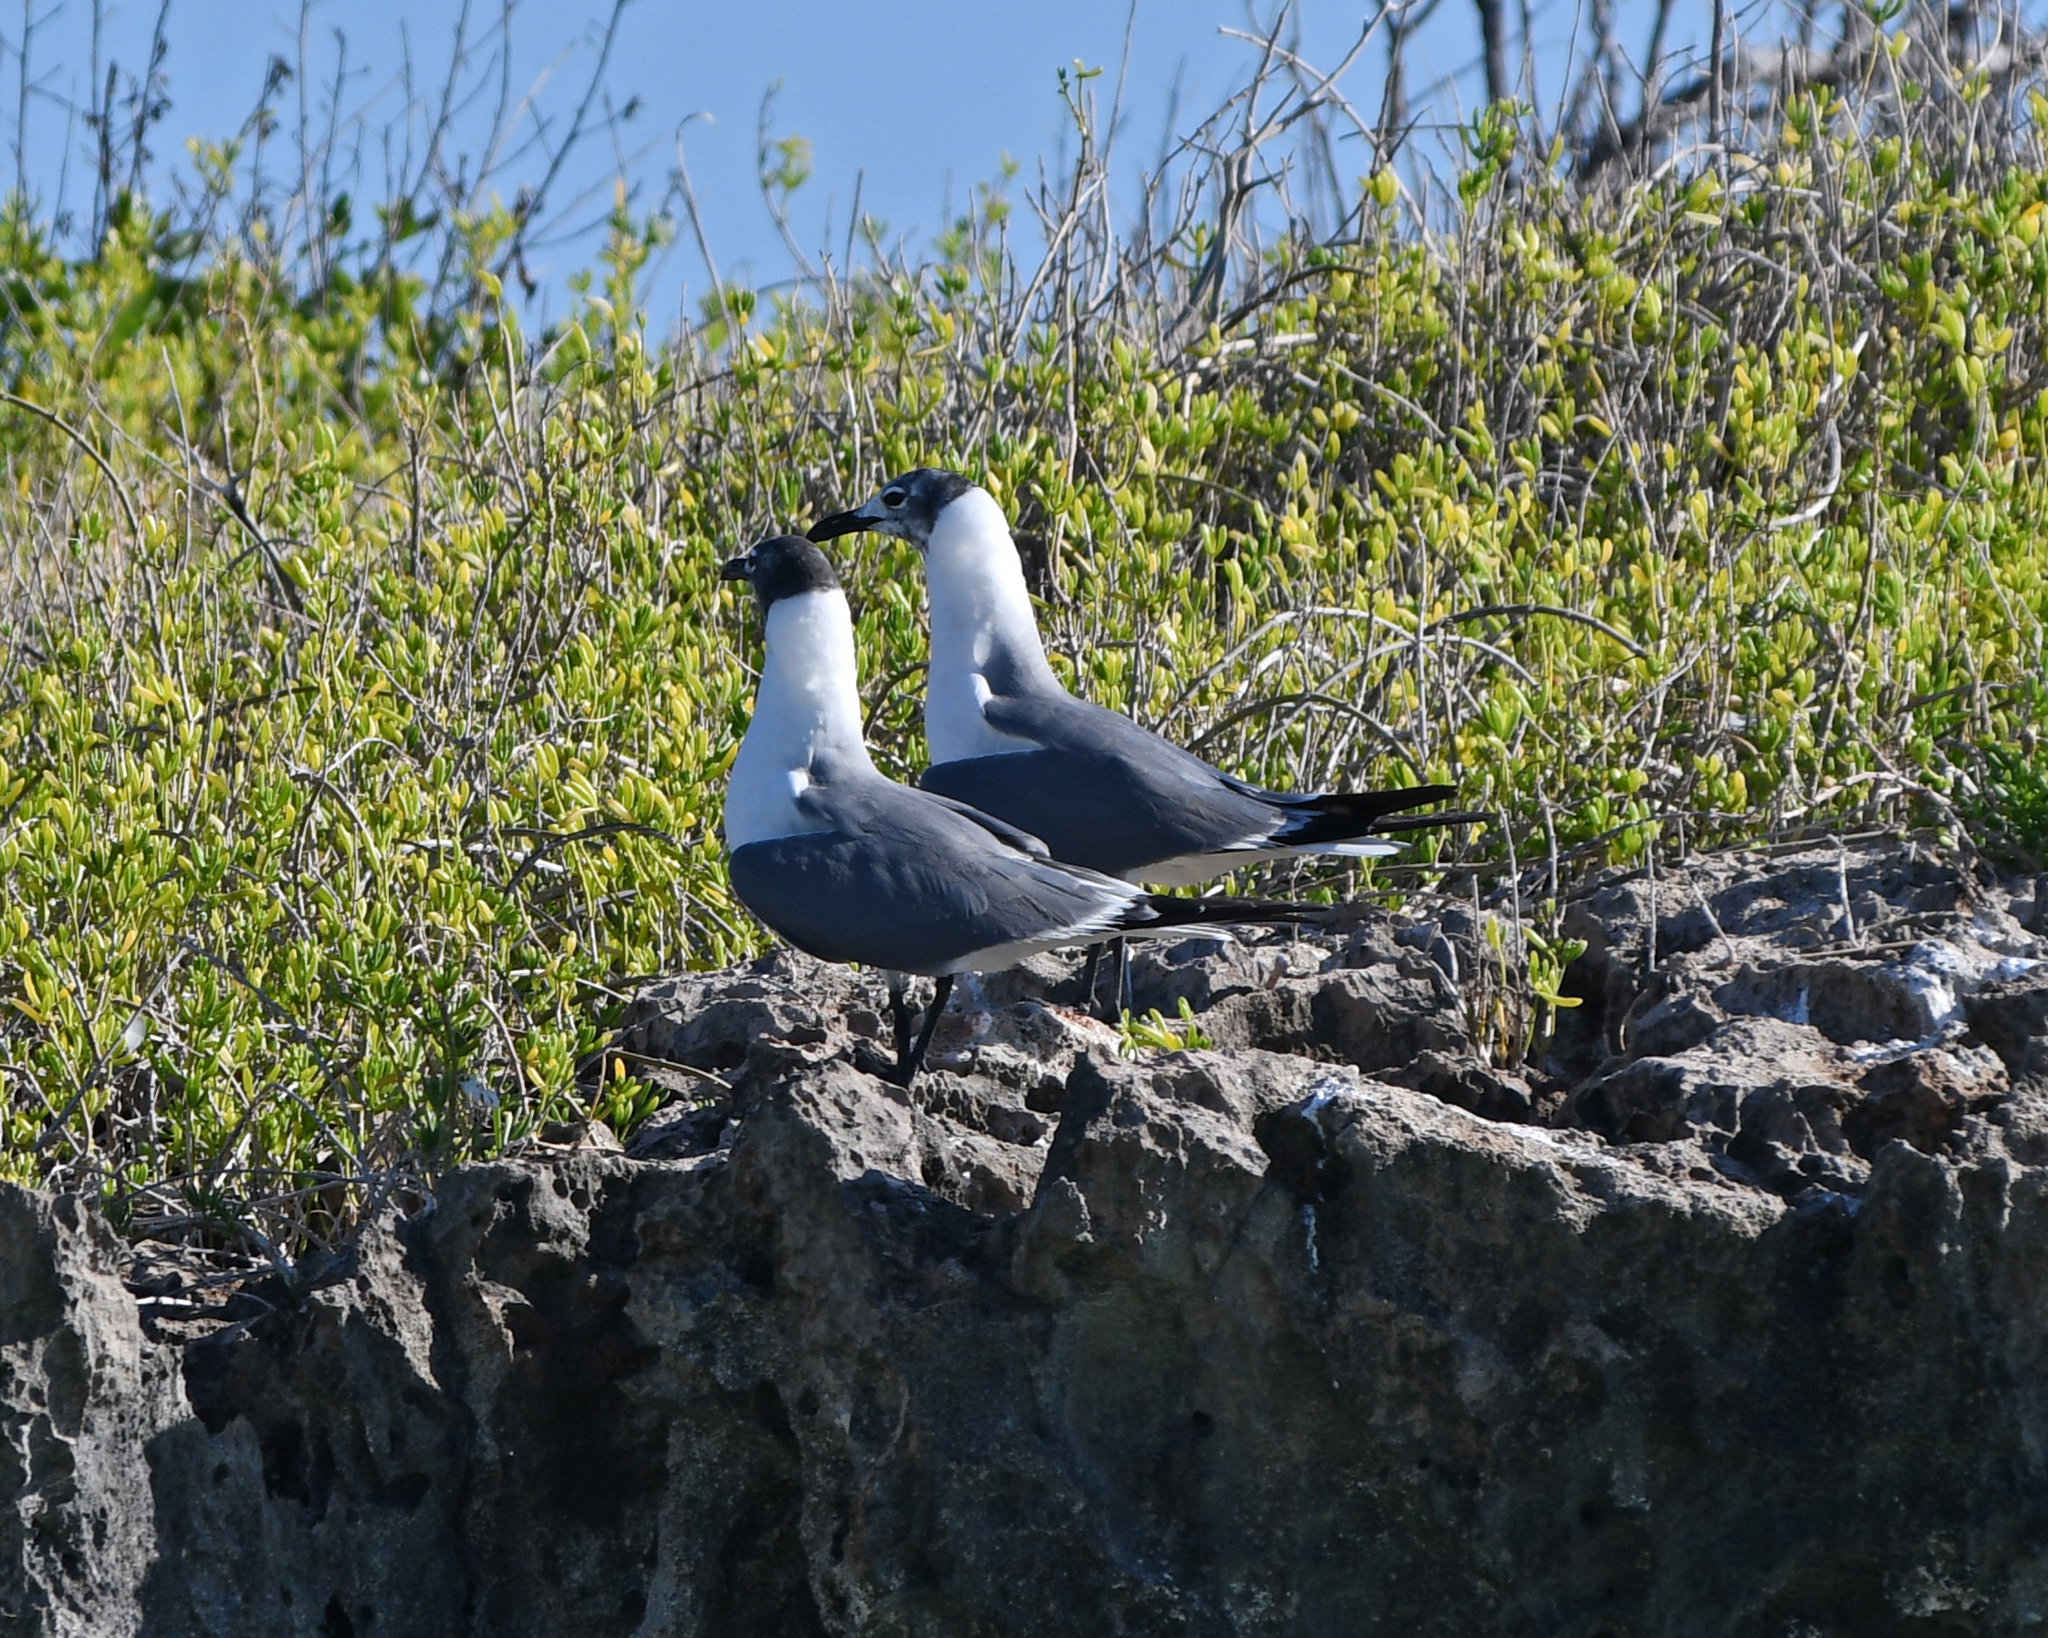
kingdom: Animalia
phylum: Chordata
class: Aves
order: Charadriiformes
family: Laridae
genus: Leucophaeus
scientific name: Leucophaeus atricilla
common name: Laughing gull
